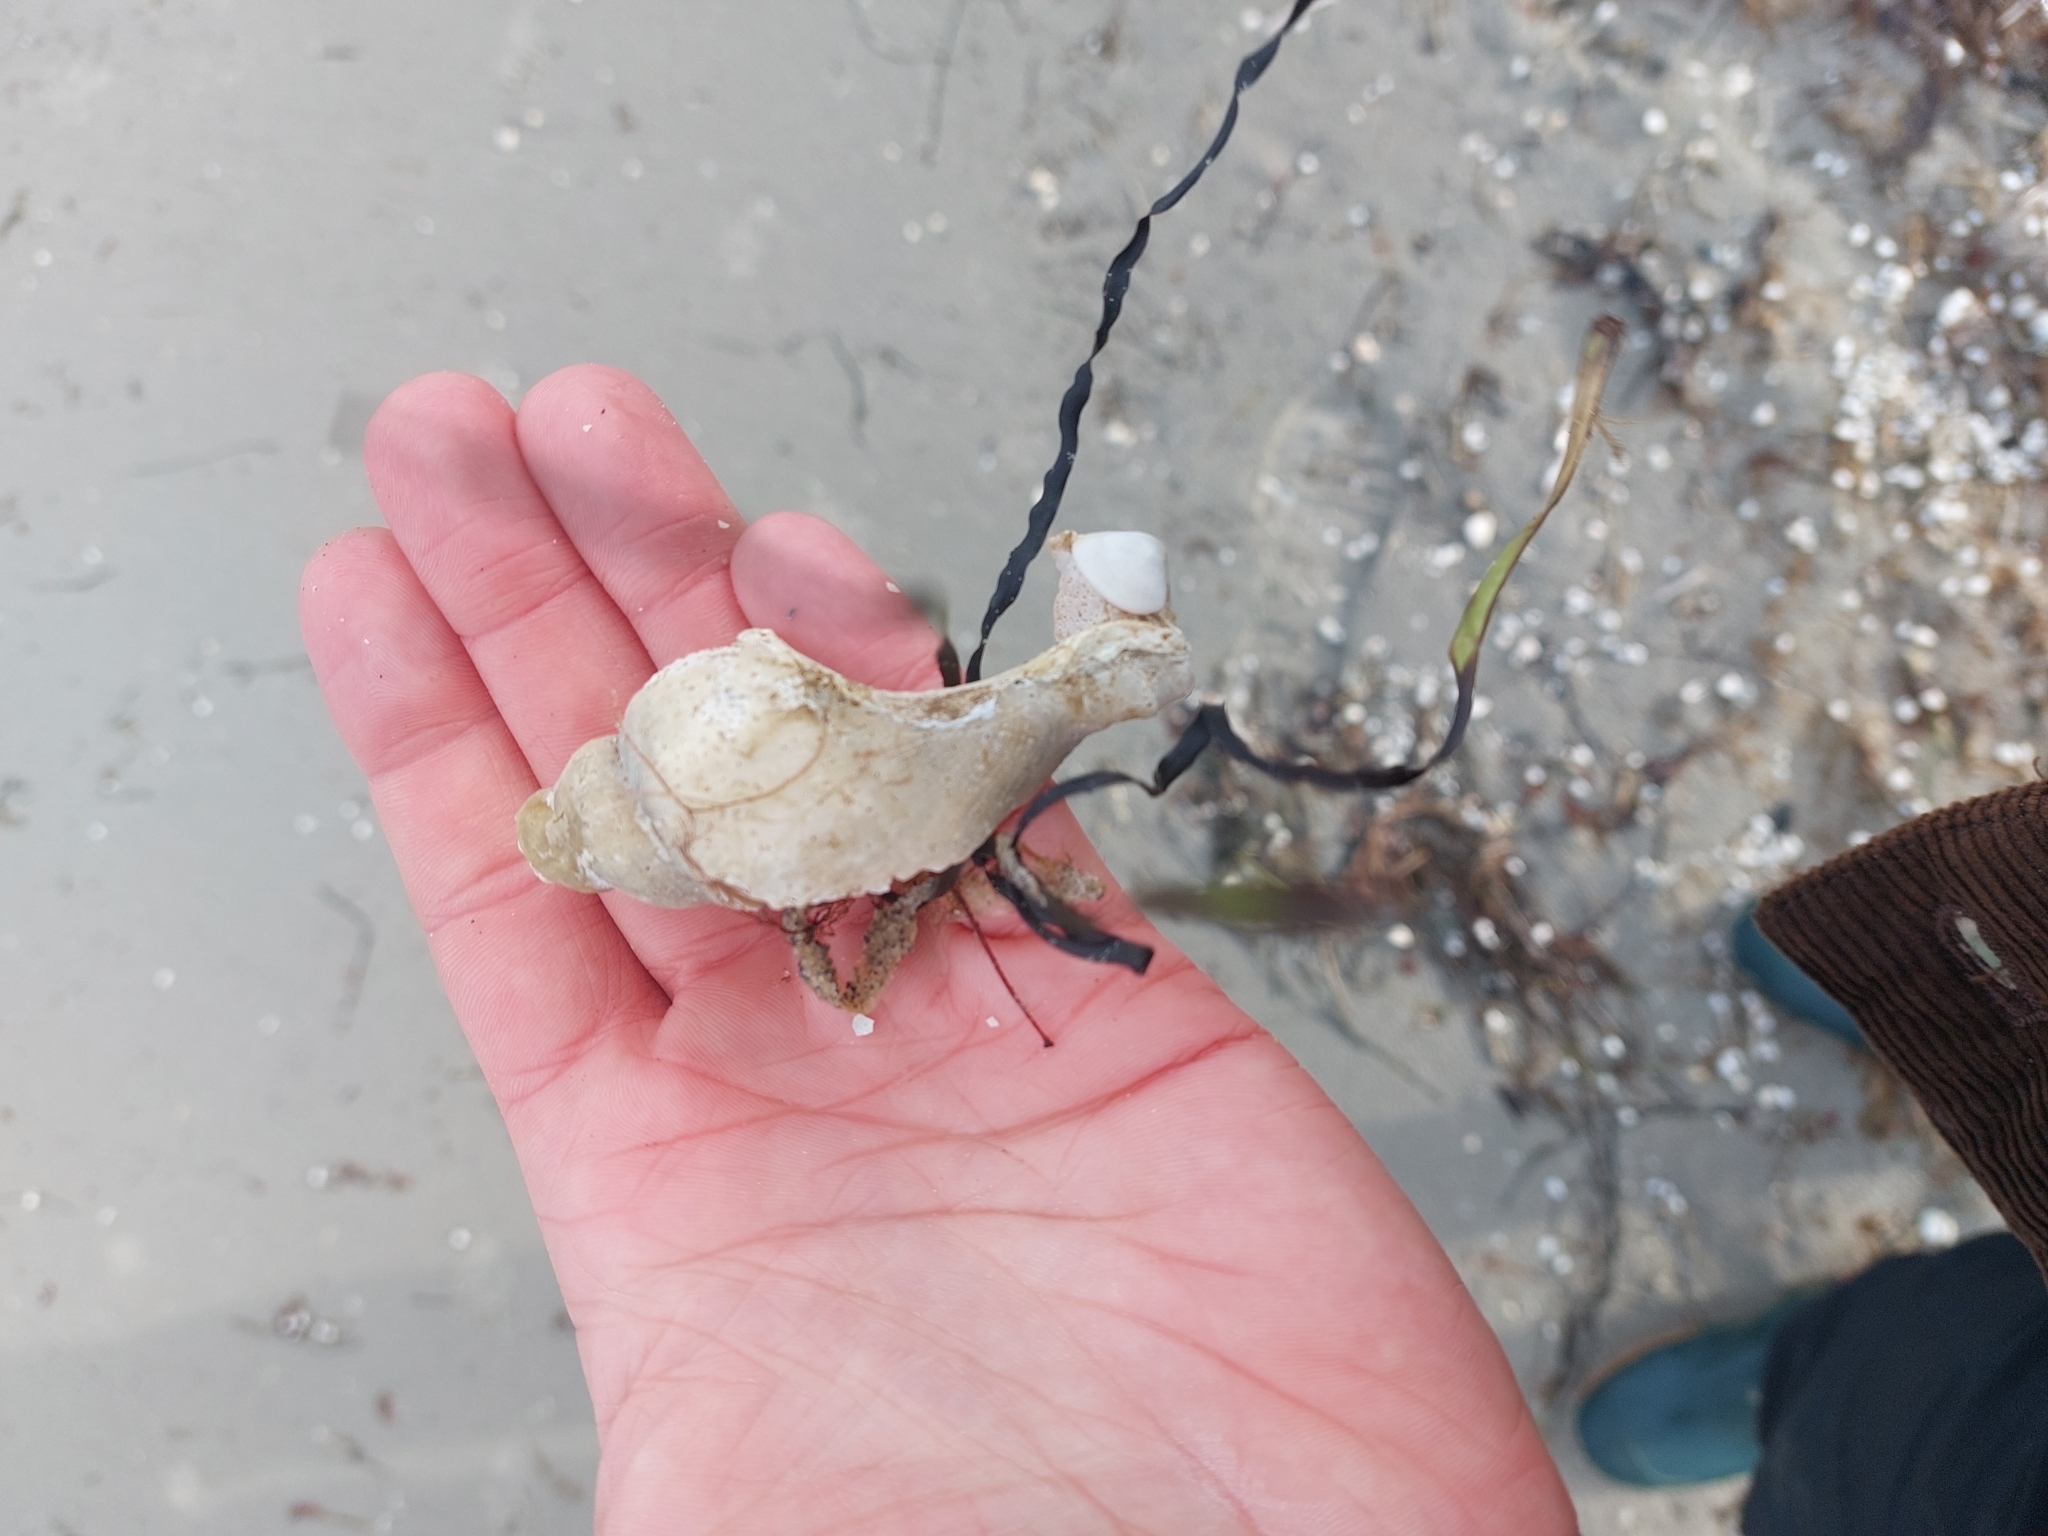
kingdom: Animalia
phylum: Mollusca
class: Gastropoda
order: Neogastropoda
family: Buccinidae
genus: Neptunea
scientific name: Neptunea antiqua
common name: Buckie
